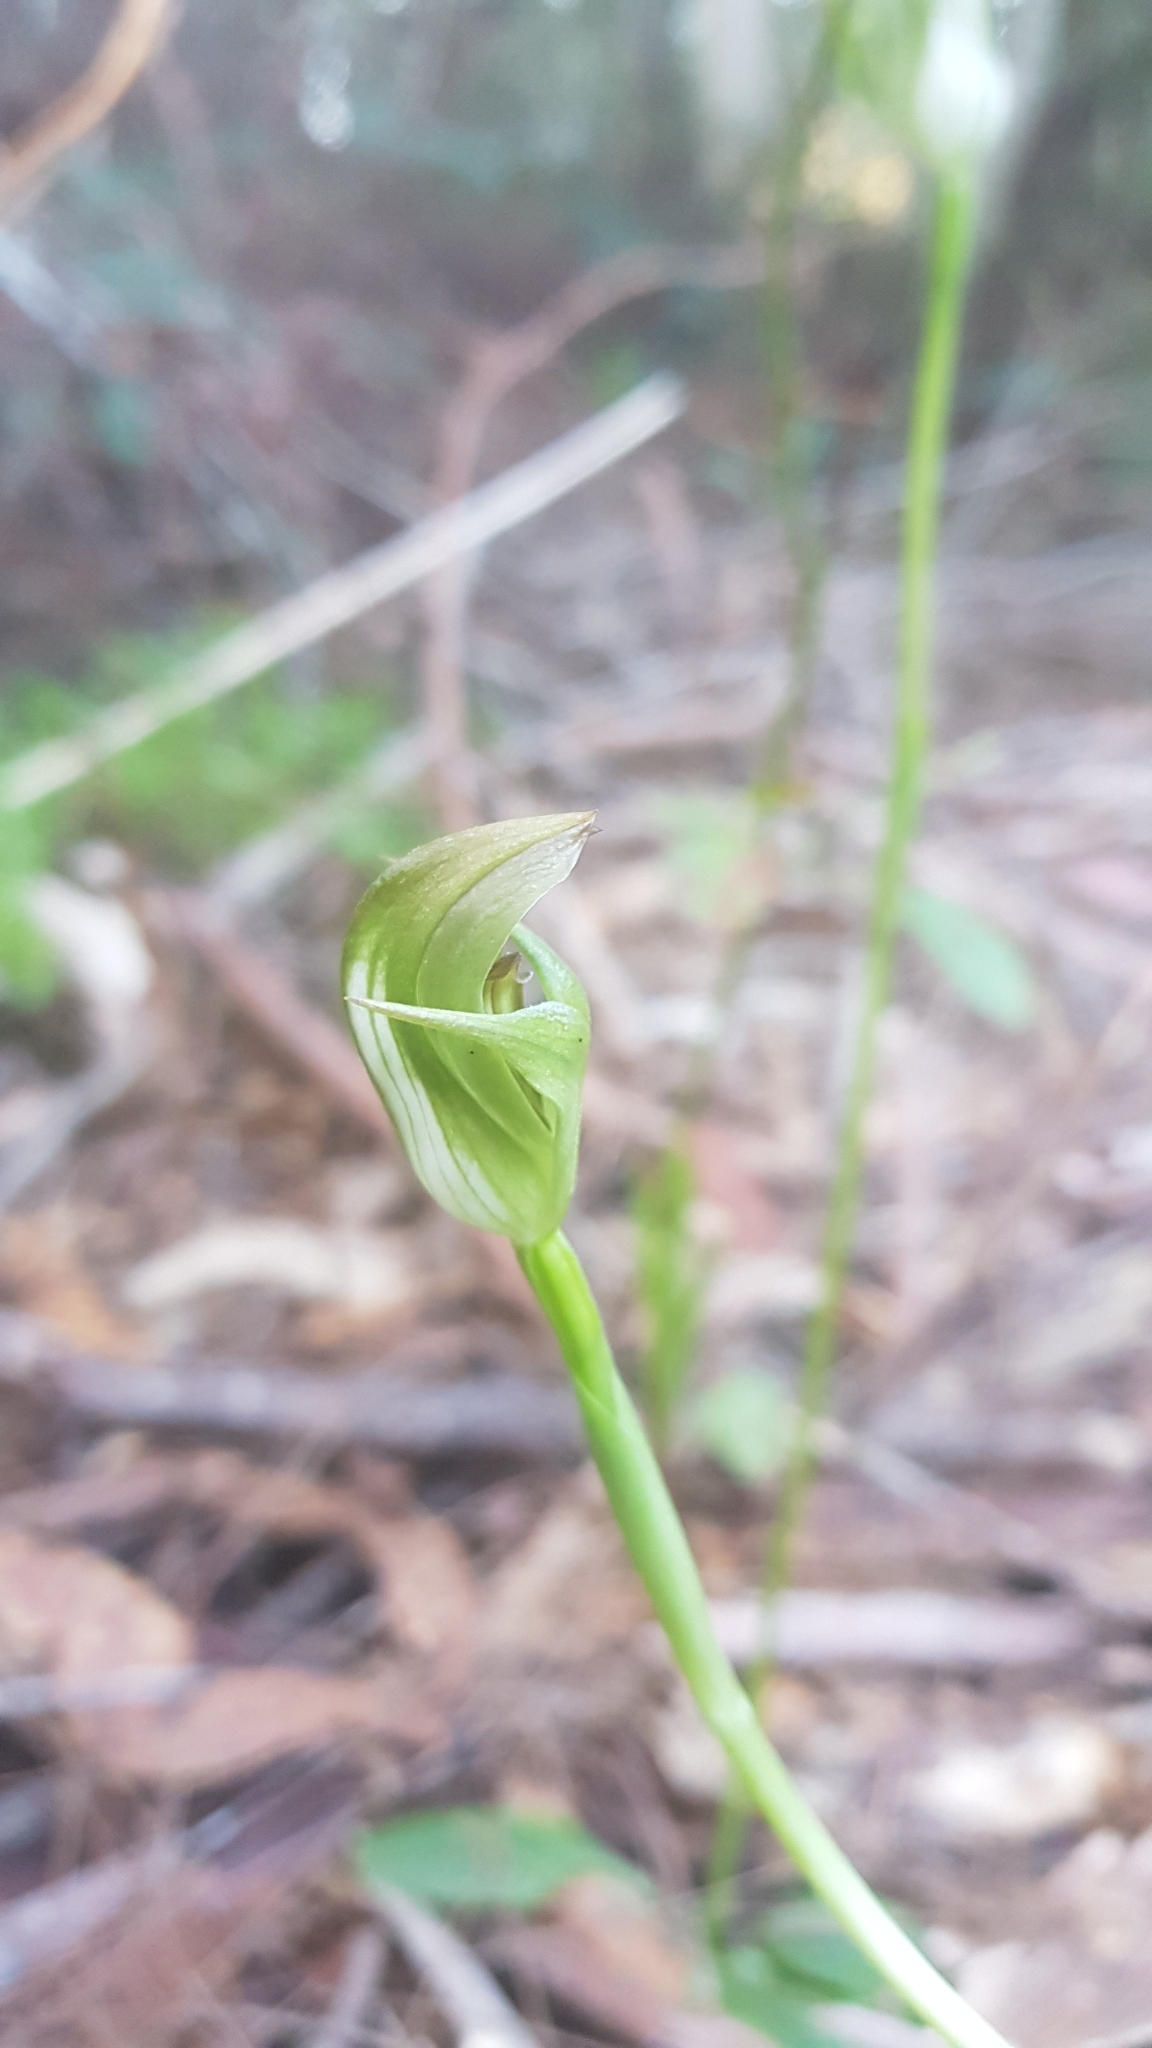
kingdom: Plantae
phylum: Tracheophyta
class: Liliopsida
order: Asparagales
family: Orchidaceae
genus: Pterostylis
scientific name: Pterostylis curta
